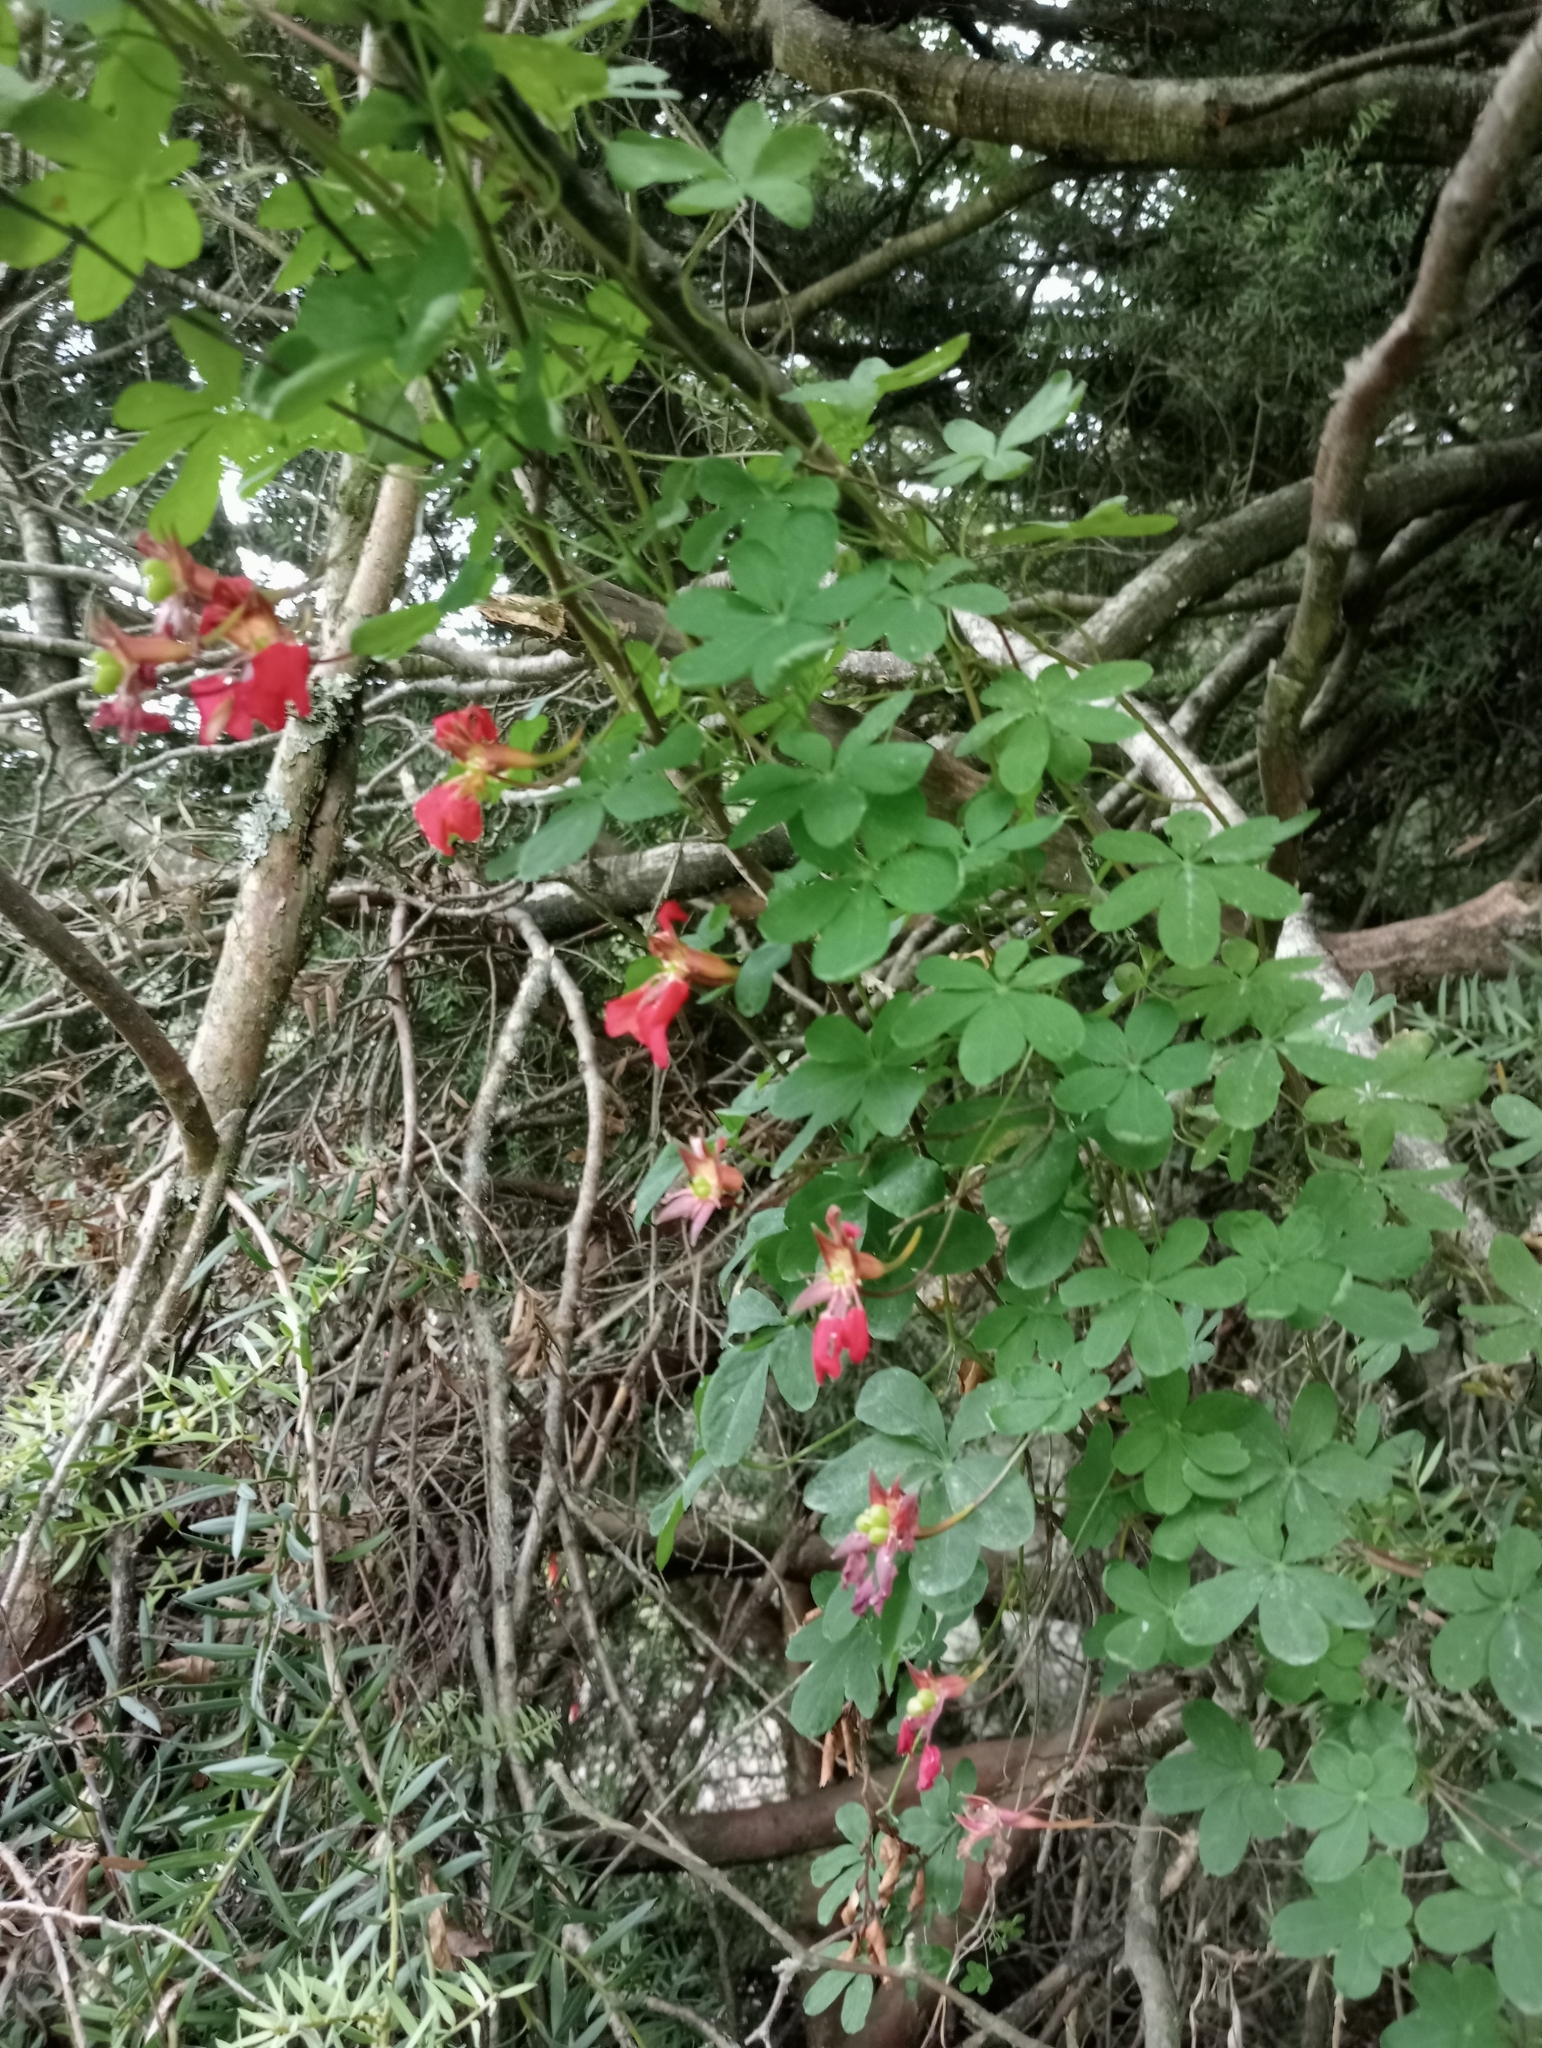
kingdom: Plantae
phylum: Tracheophyta
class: Magnoliopsida
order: Brassicales
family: Tropaeolaceae
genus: Tropaeolum
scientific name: Tropaeolum speciosum
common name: Flame nasturtium
